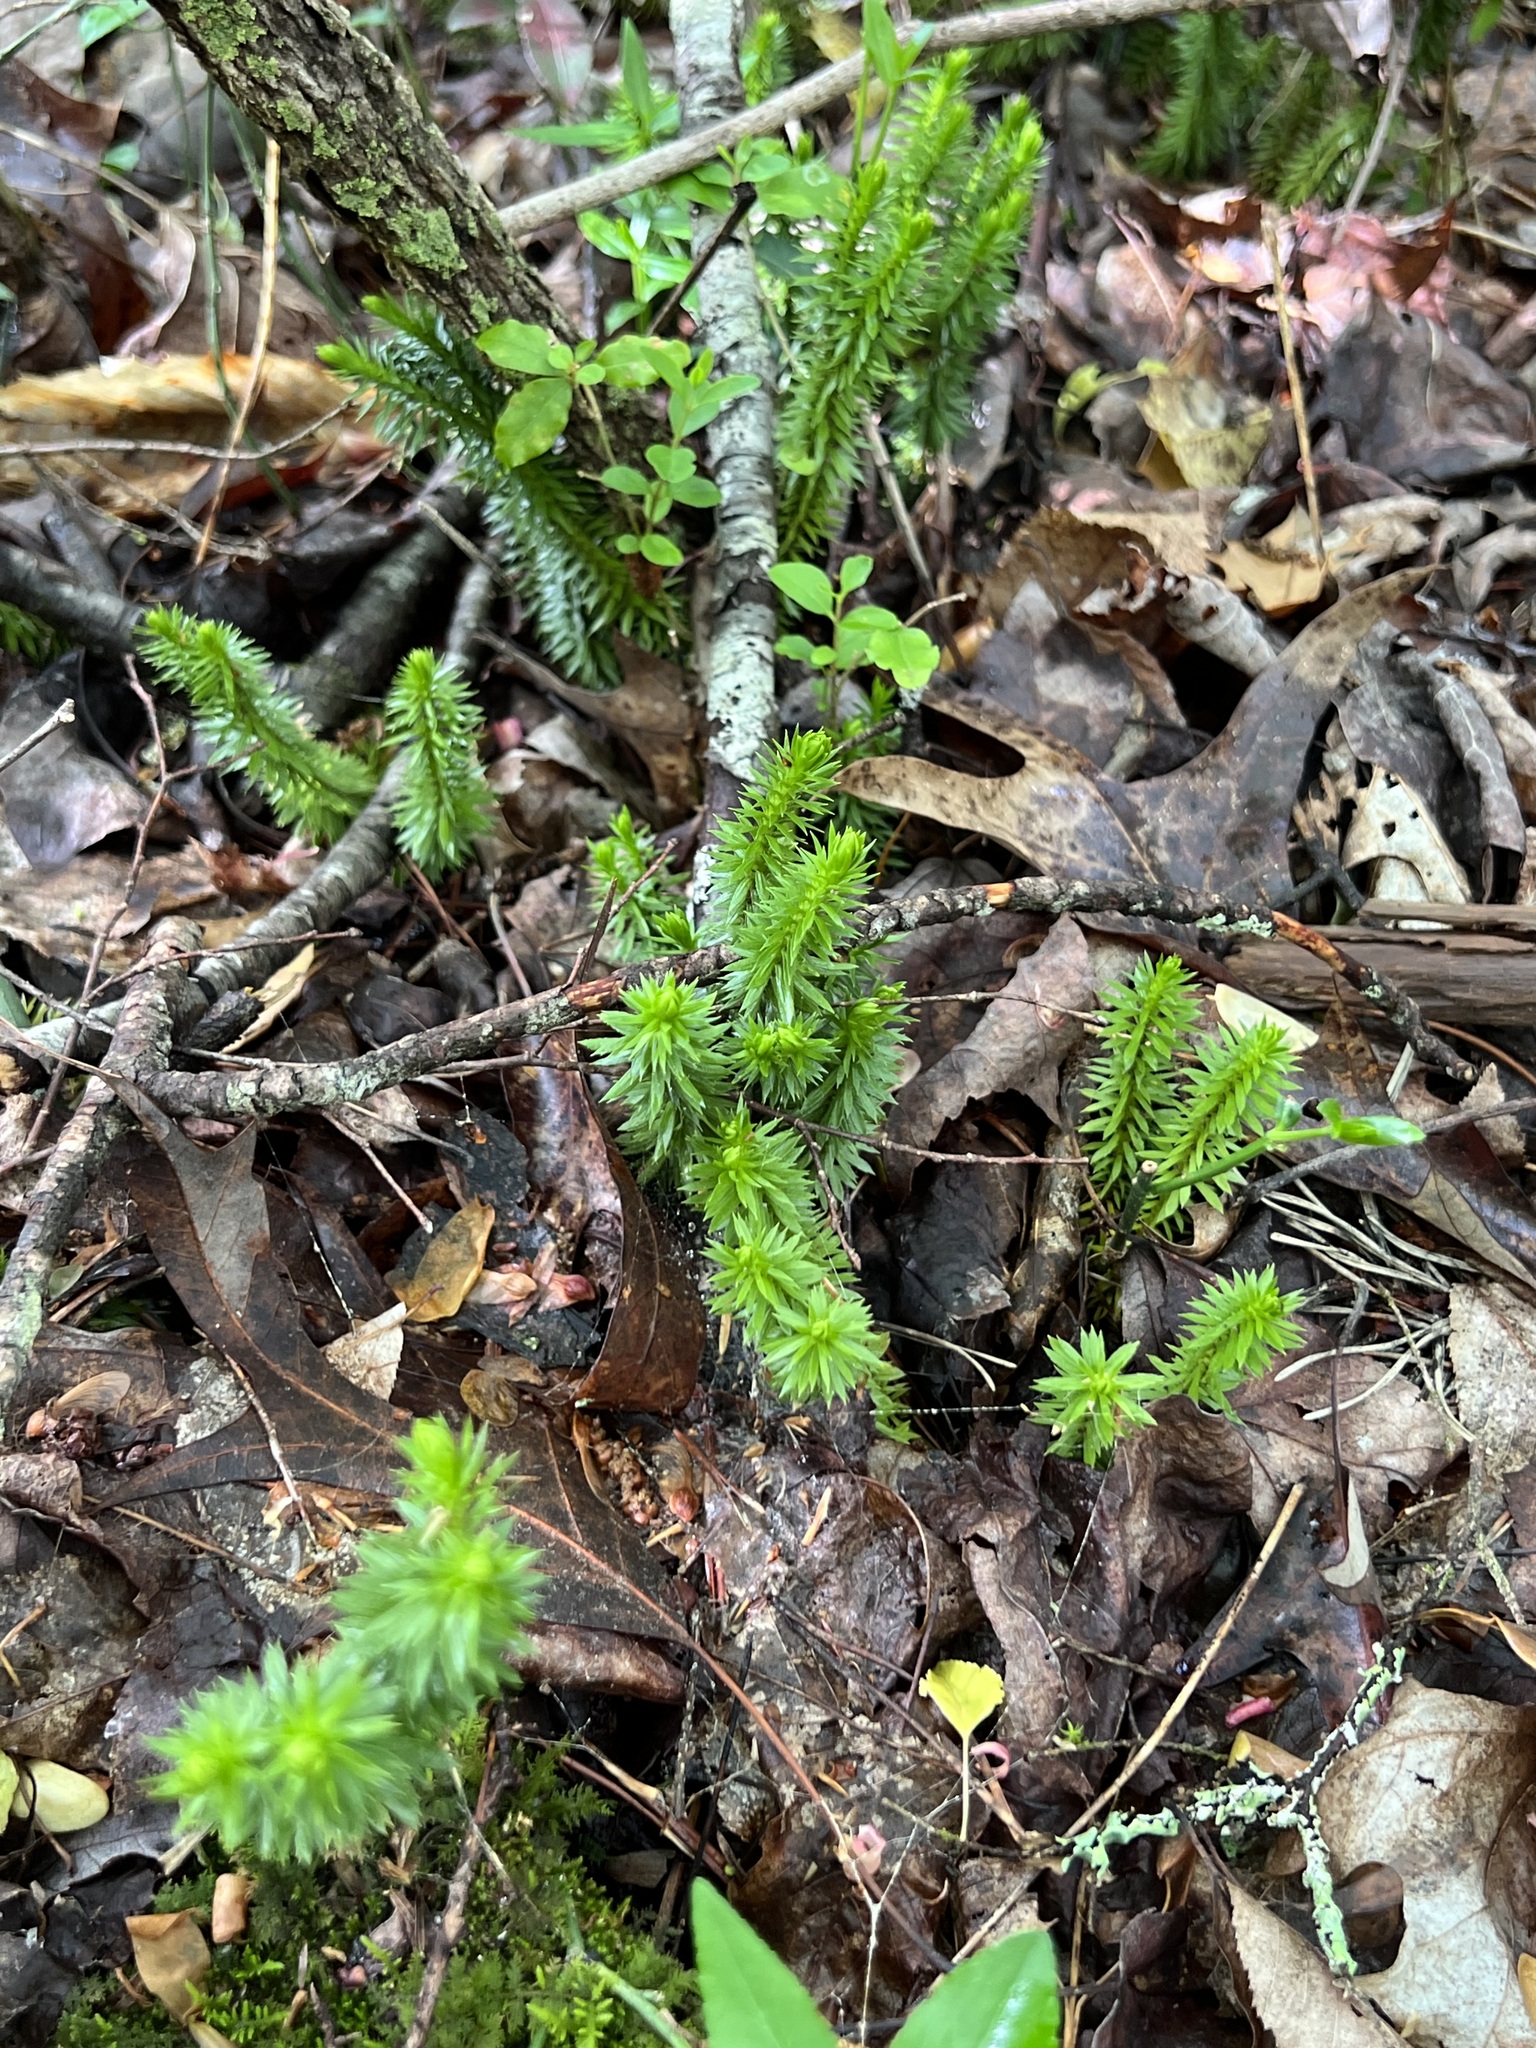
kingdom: Plantae
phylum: Tracheophyta
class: Lycopodiopsida
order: Lycopodiales
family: Lycopodiaceae
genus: Huperzia
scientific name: Huperzia lucidula
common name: Shining clubmoss
